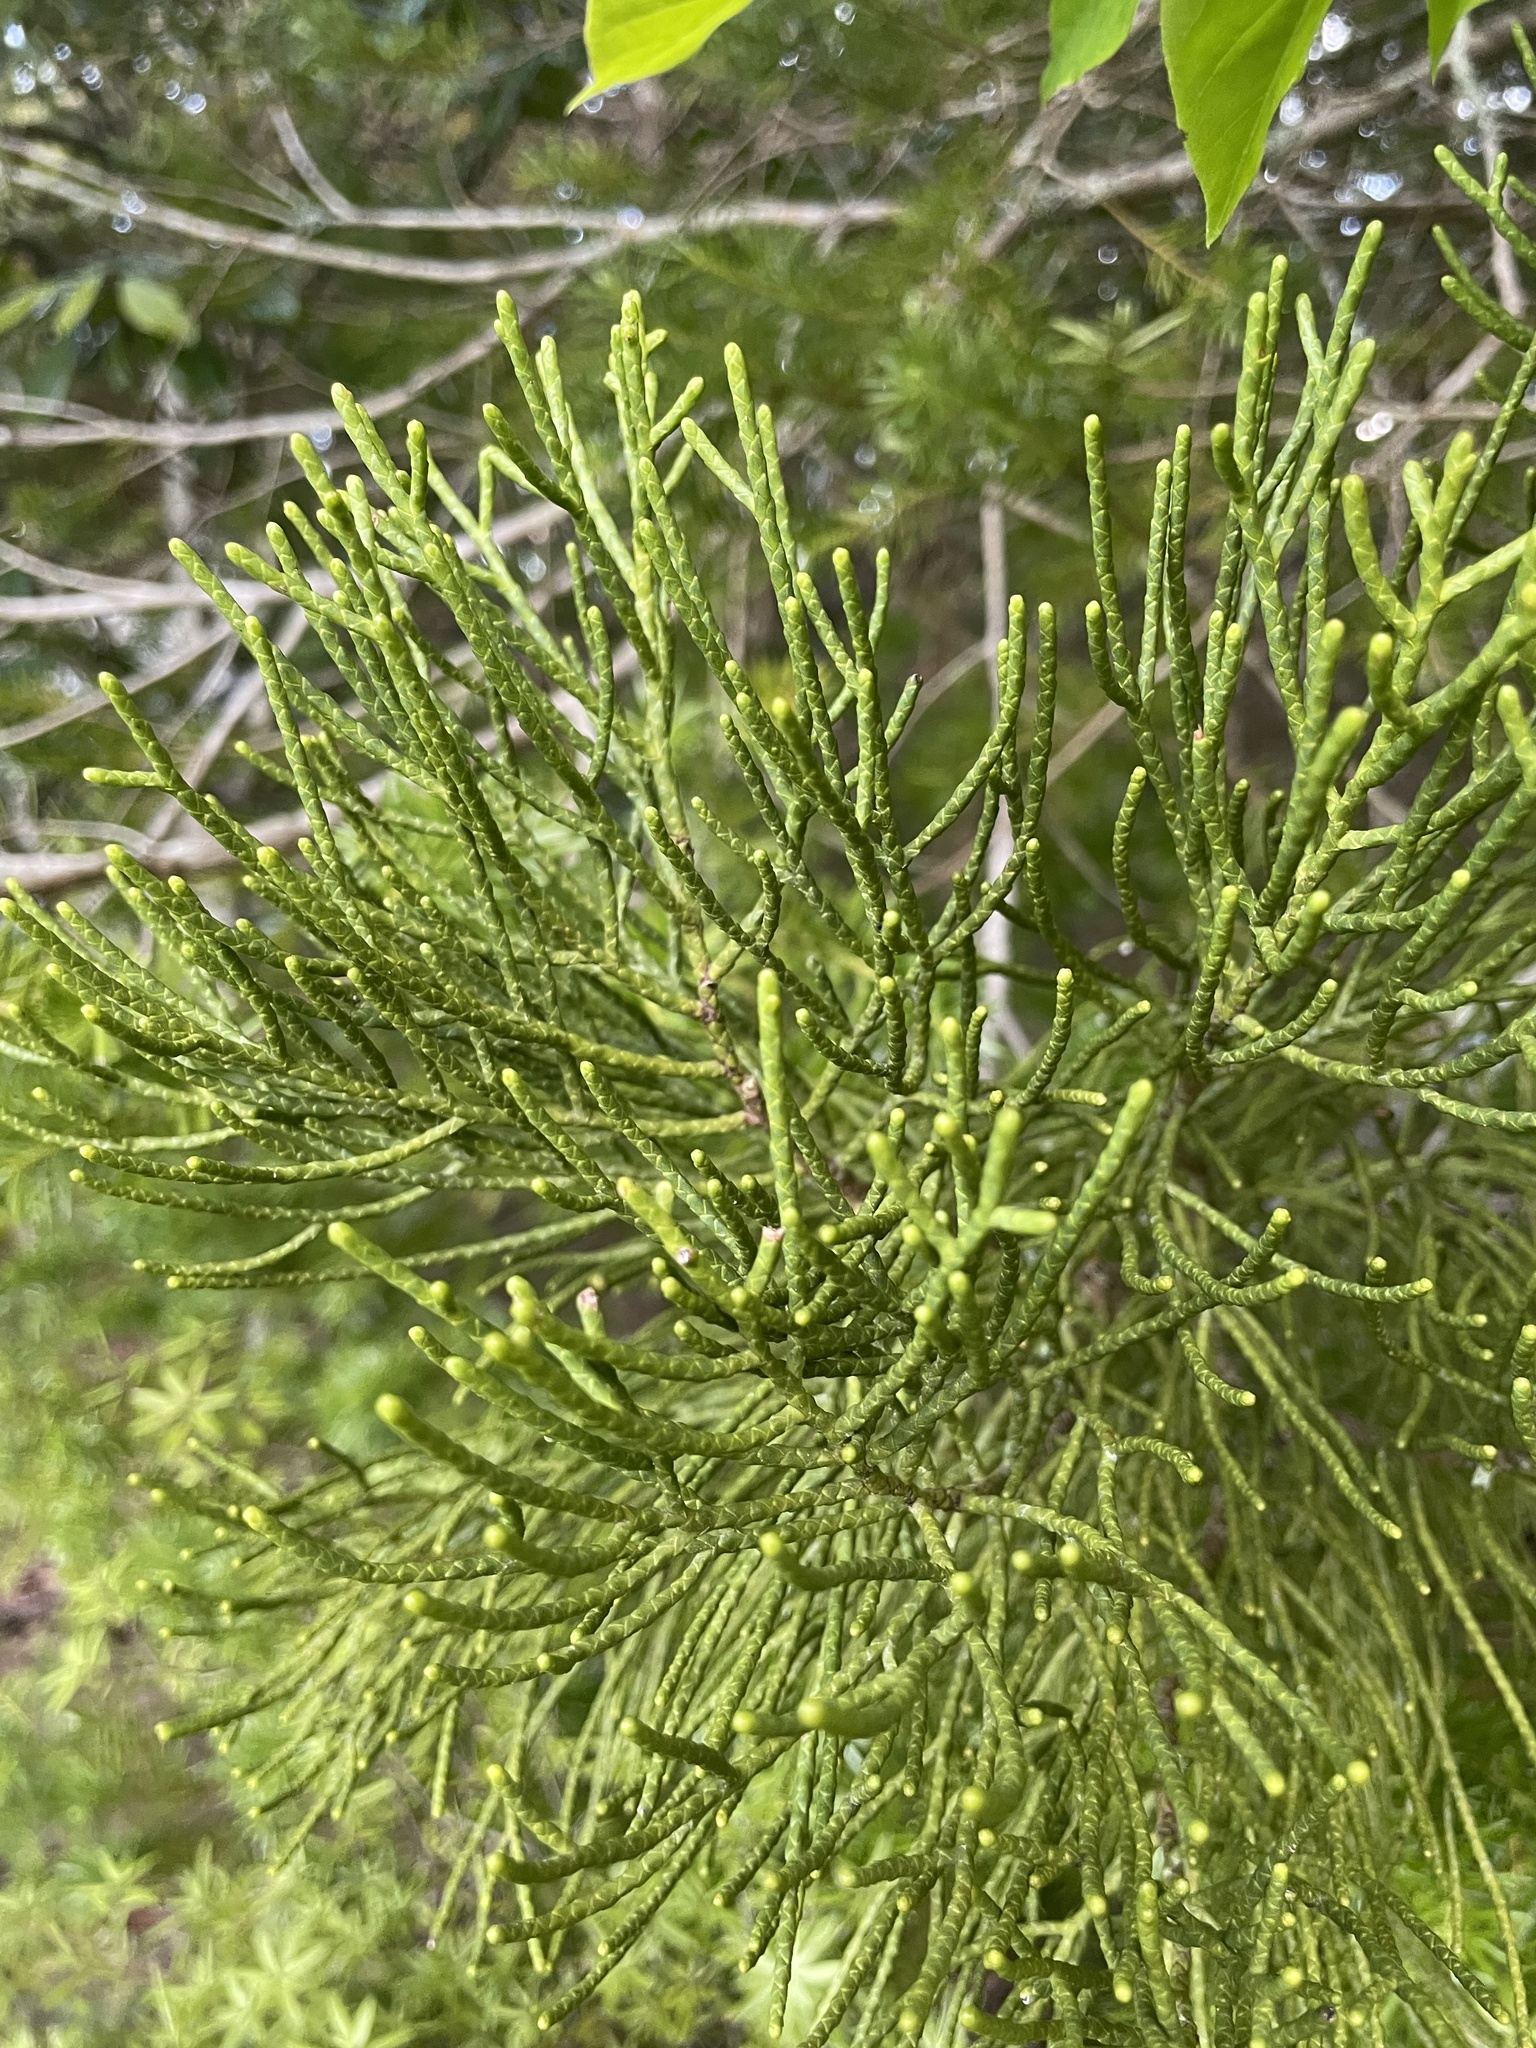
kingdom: Plantae
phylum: Tracheophyta
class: Pinopsida
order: Pinales
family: Podocarpaceae
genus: Halocarpus
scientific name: Halocarpus kirkii
